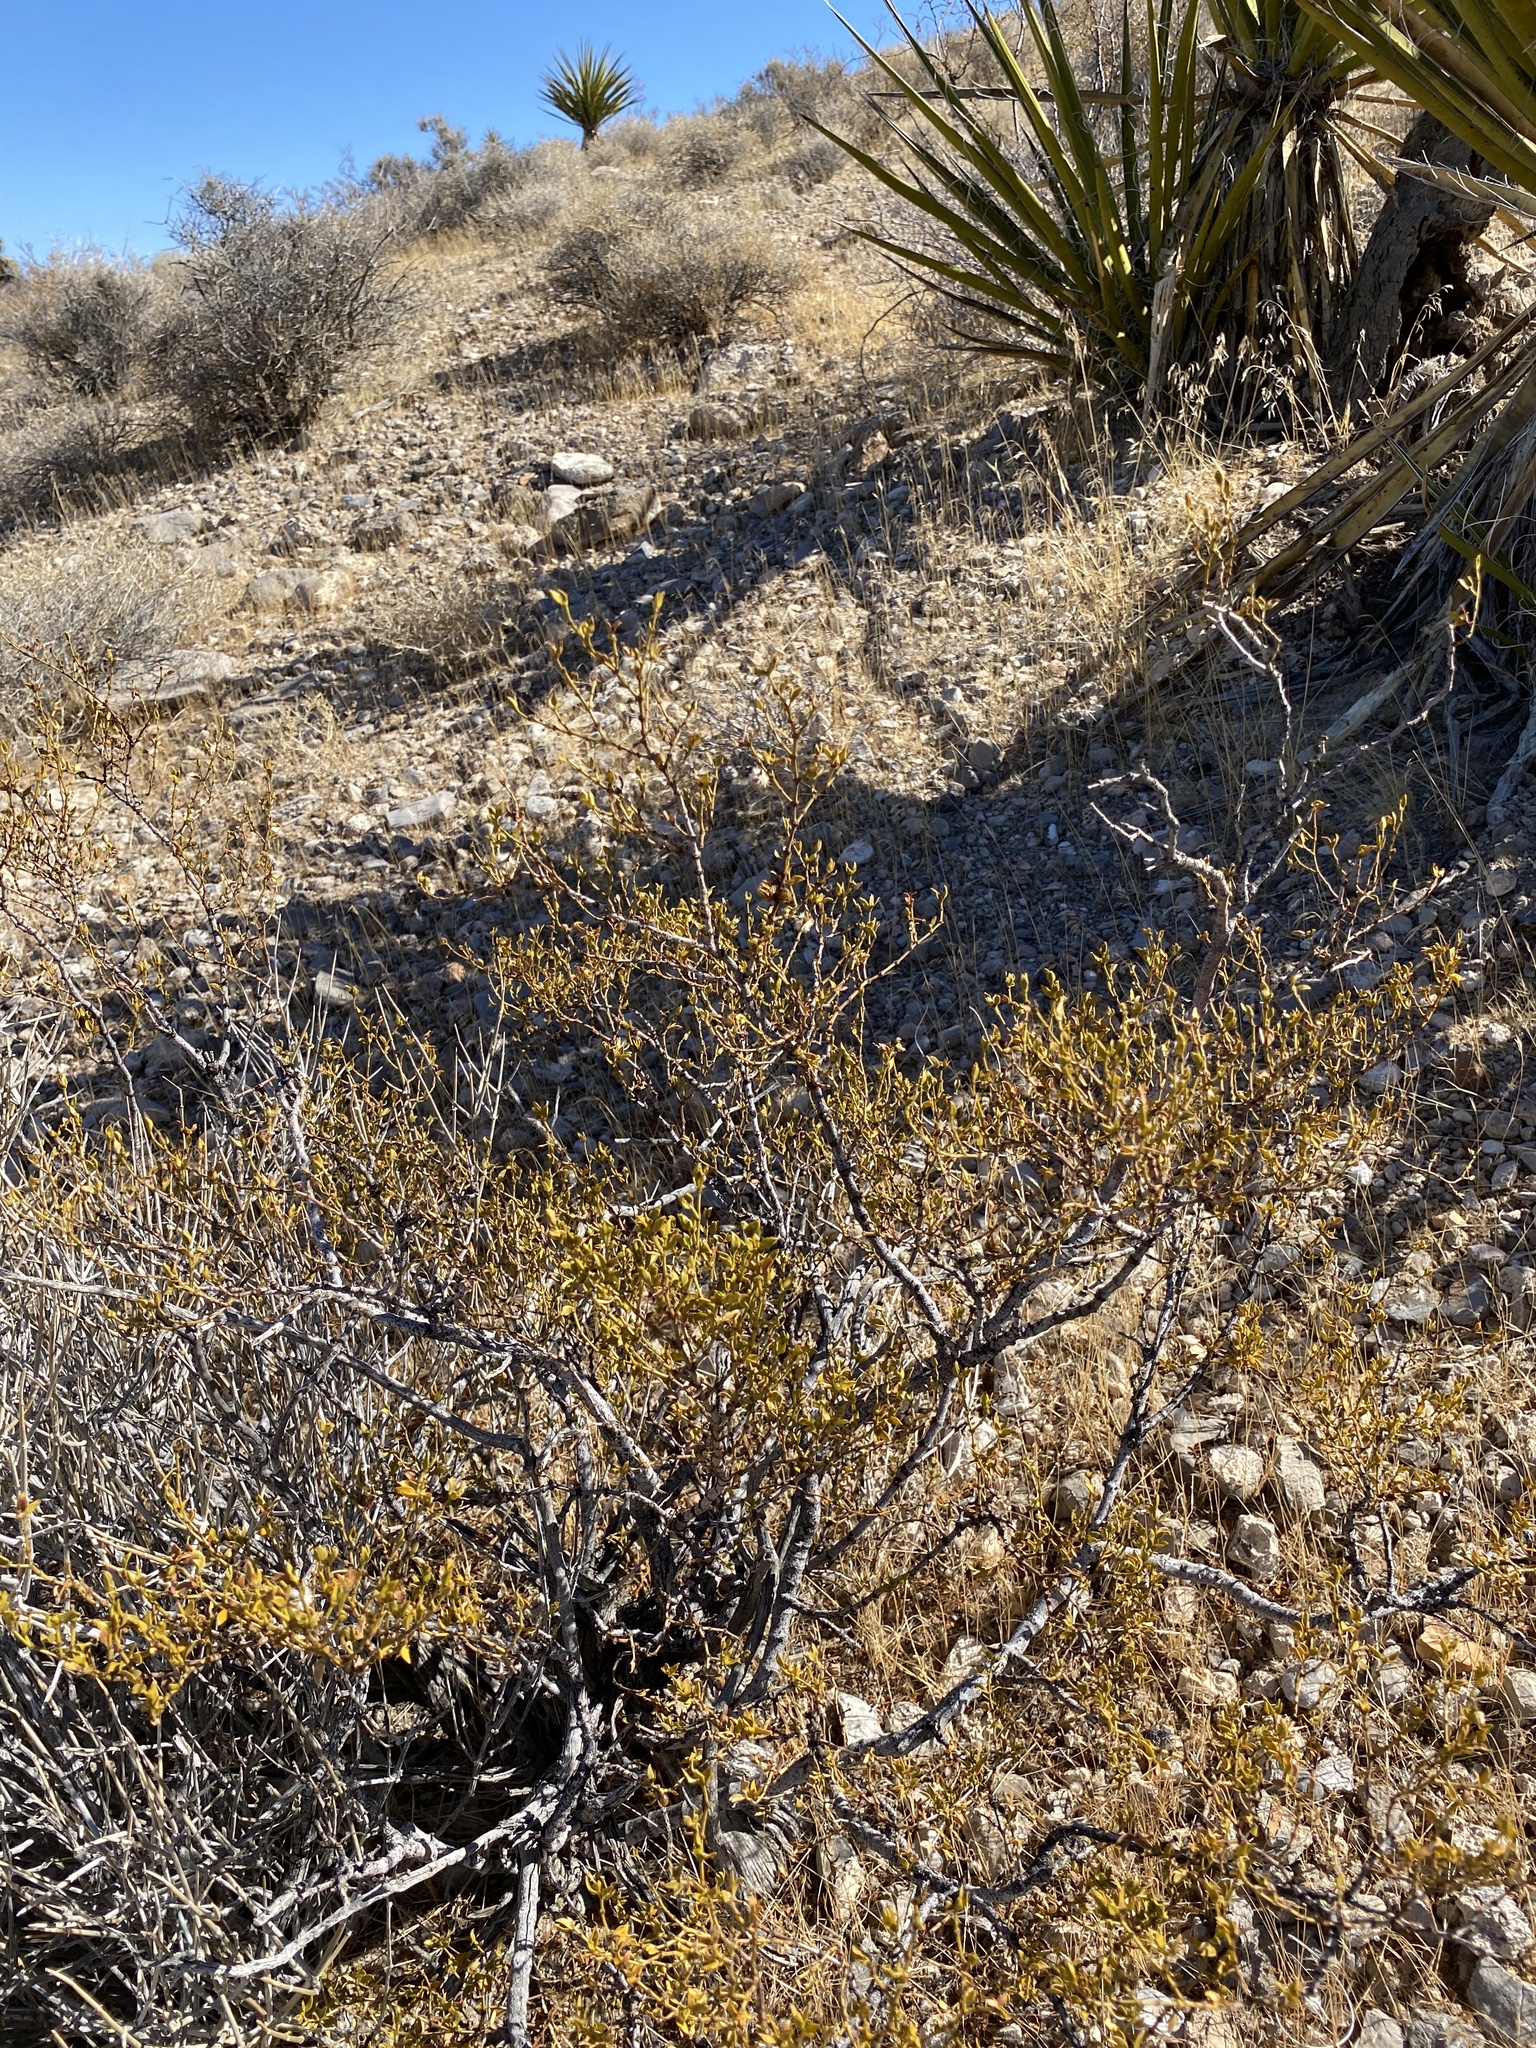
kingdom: Plantae
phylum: Tracheophyta
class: Magnoliopsida
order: Zygophyllales
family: Zygophyllaceae
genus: Larrea
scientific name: Larrea tridentata
